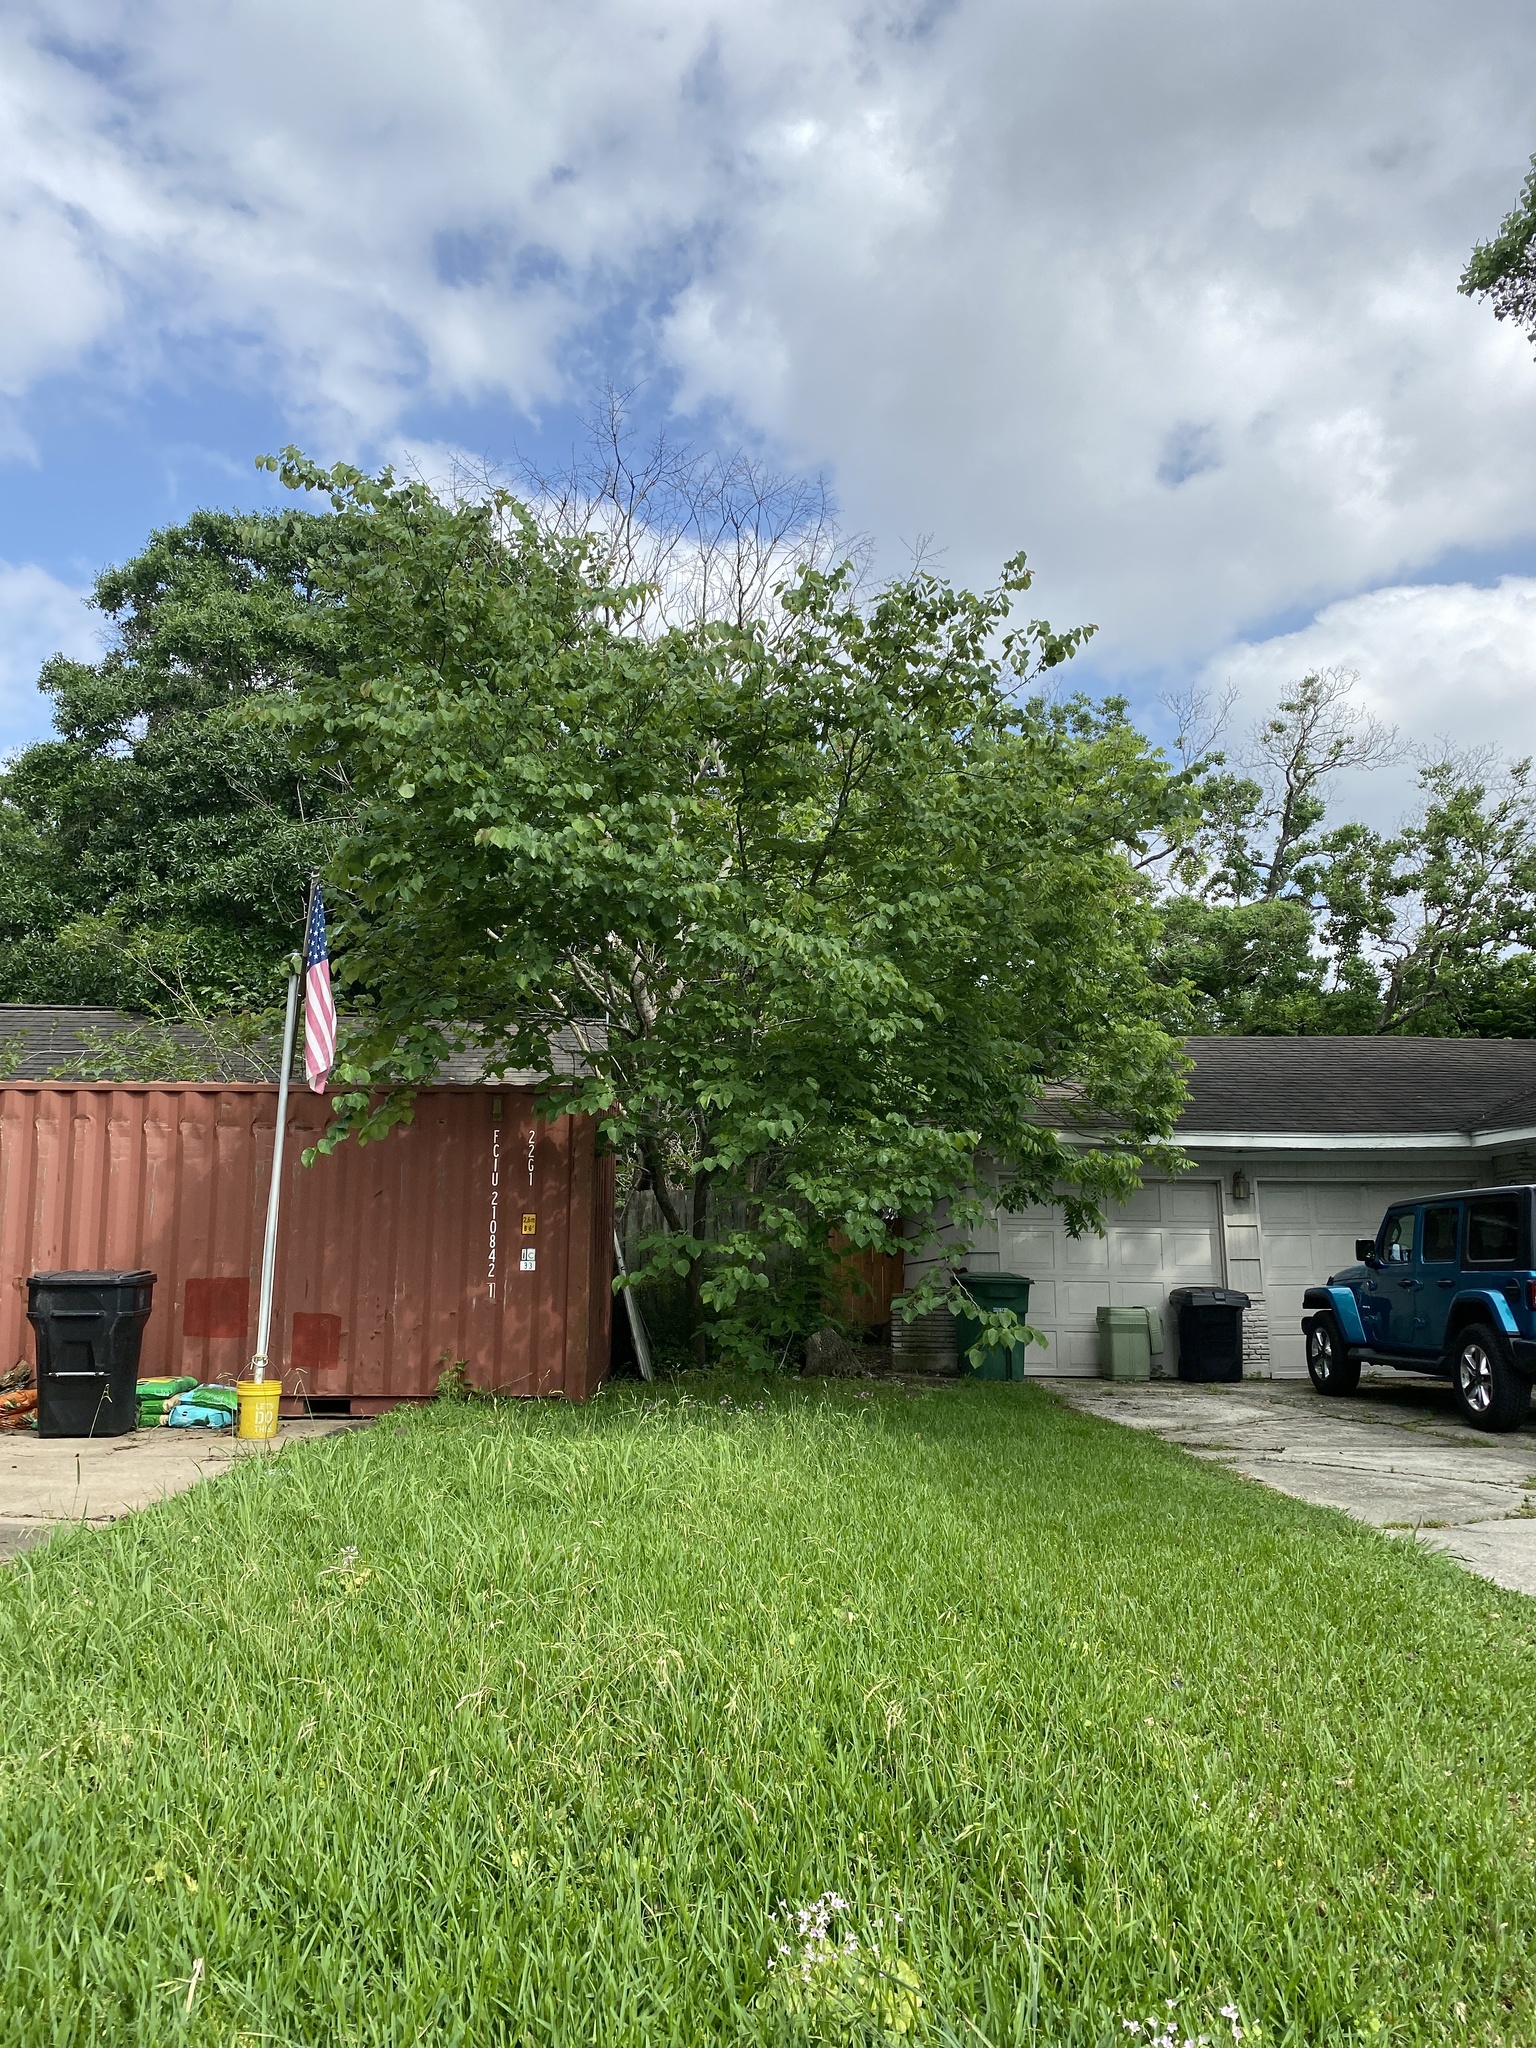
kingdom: Plantae
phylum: Tracheophyta
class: Magnoliopsida
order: Fabales
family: Fabaceae
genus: Cercis
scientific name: Cercis canadensis
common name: Eastern redbud
